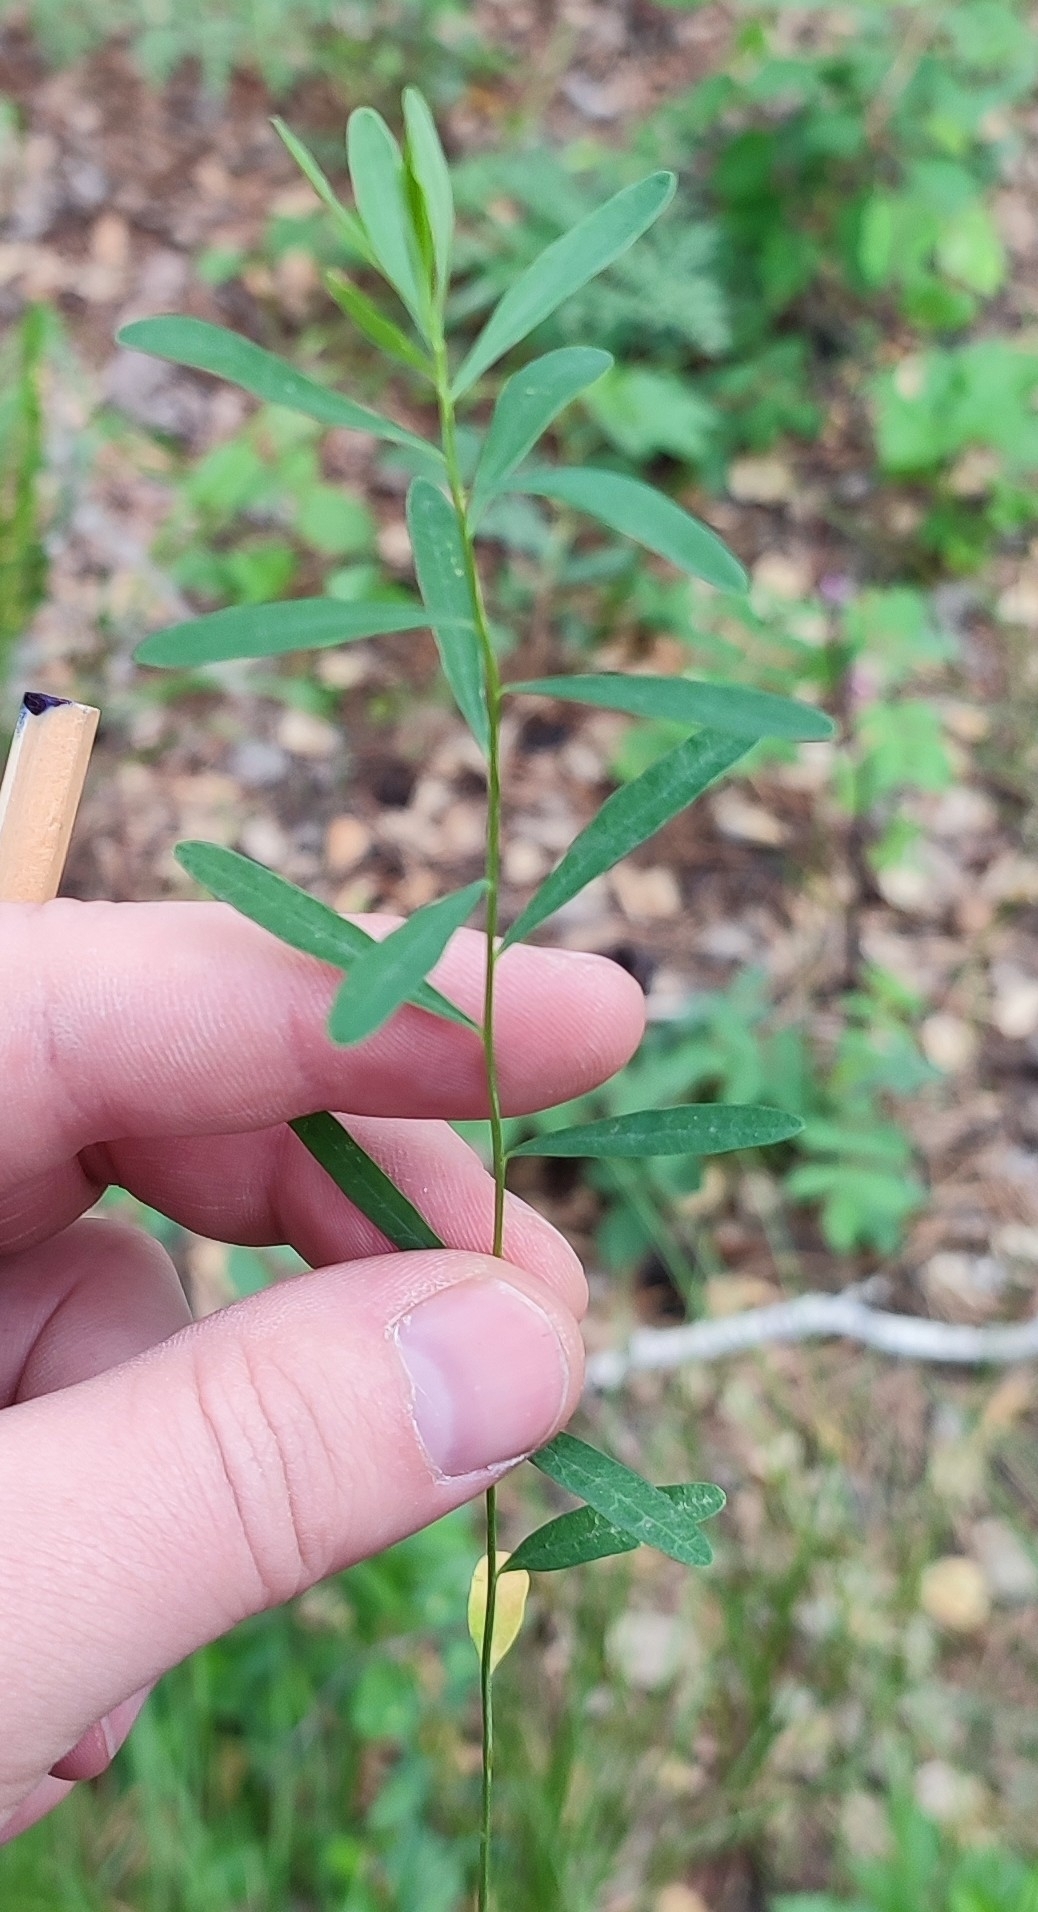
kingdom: Plantae
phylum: Tracheophyta
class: Magnoliopsida
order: Malpighiales
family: Euphorbiaceae
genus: Euphorbia
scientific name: Euphorbia borealis
